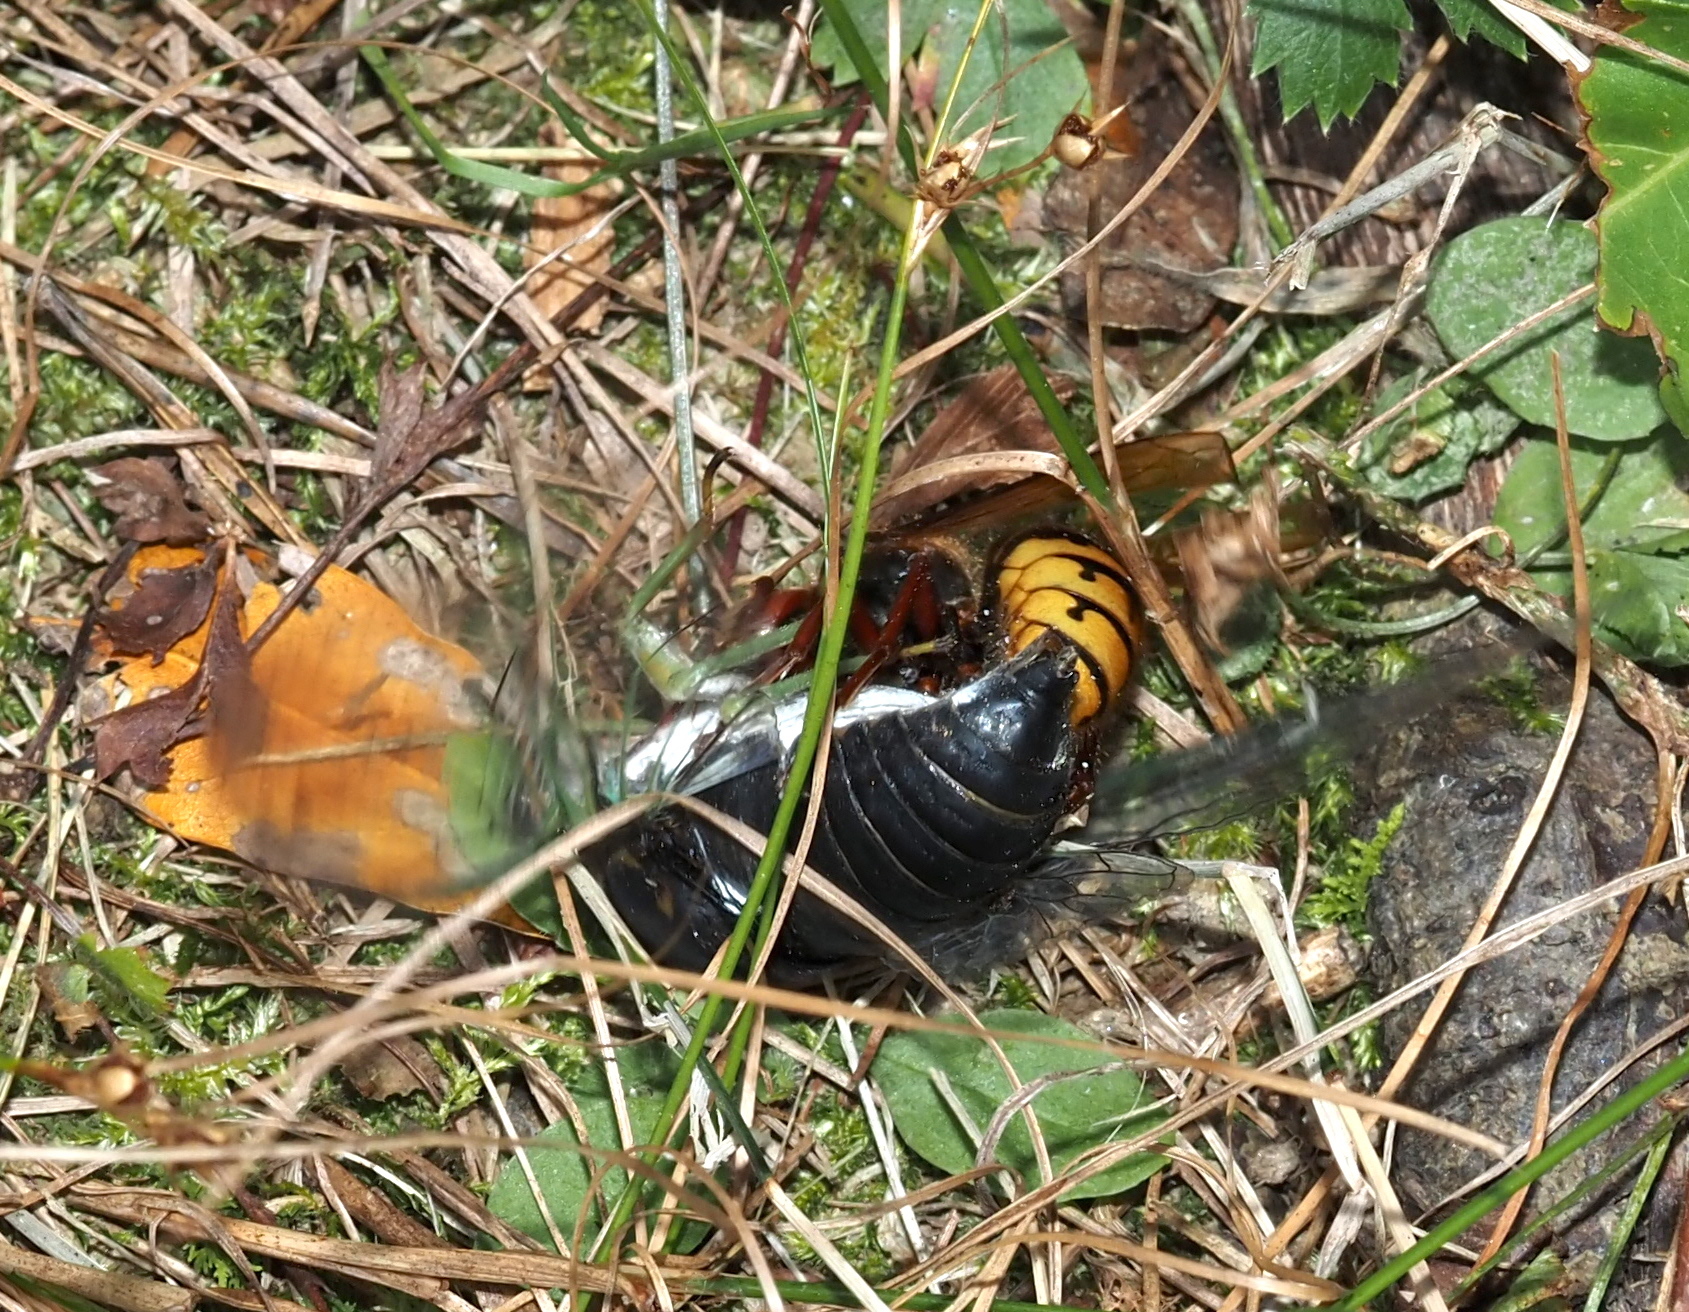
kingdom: Animalia
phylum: Arthropoda
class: Insecta
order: Hymenoptera
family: Vespidae
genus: Vespa
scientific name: Vespa crabro
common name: Hornet
